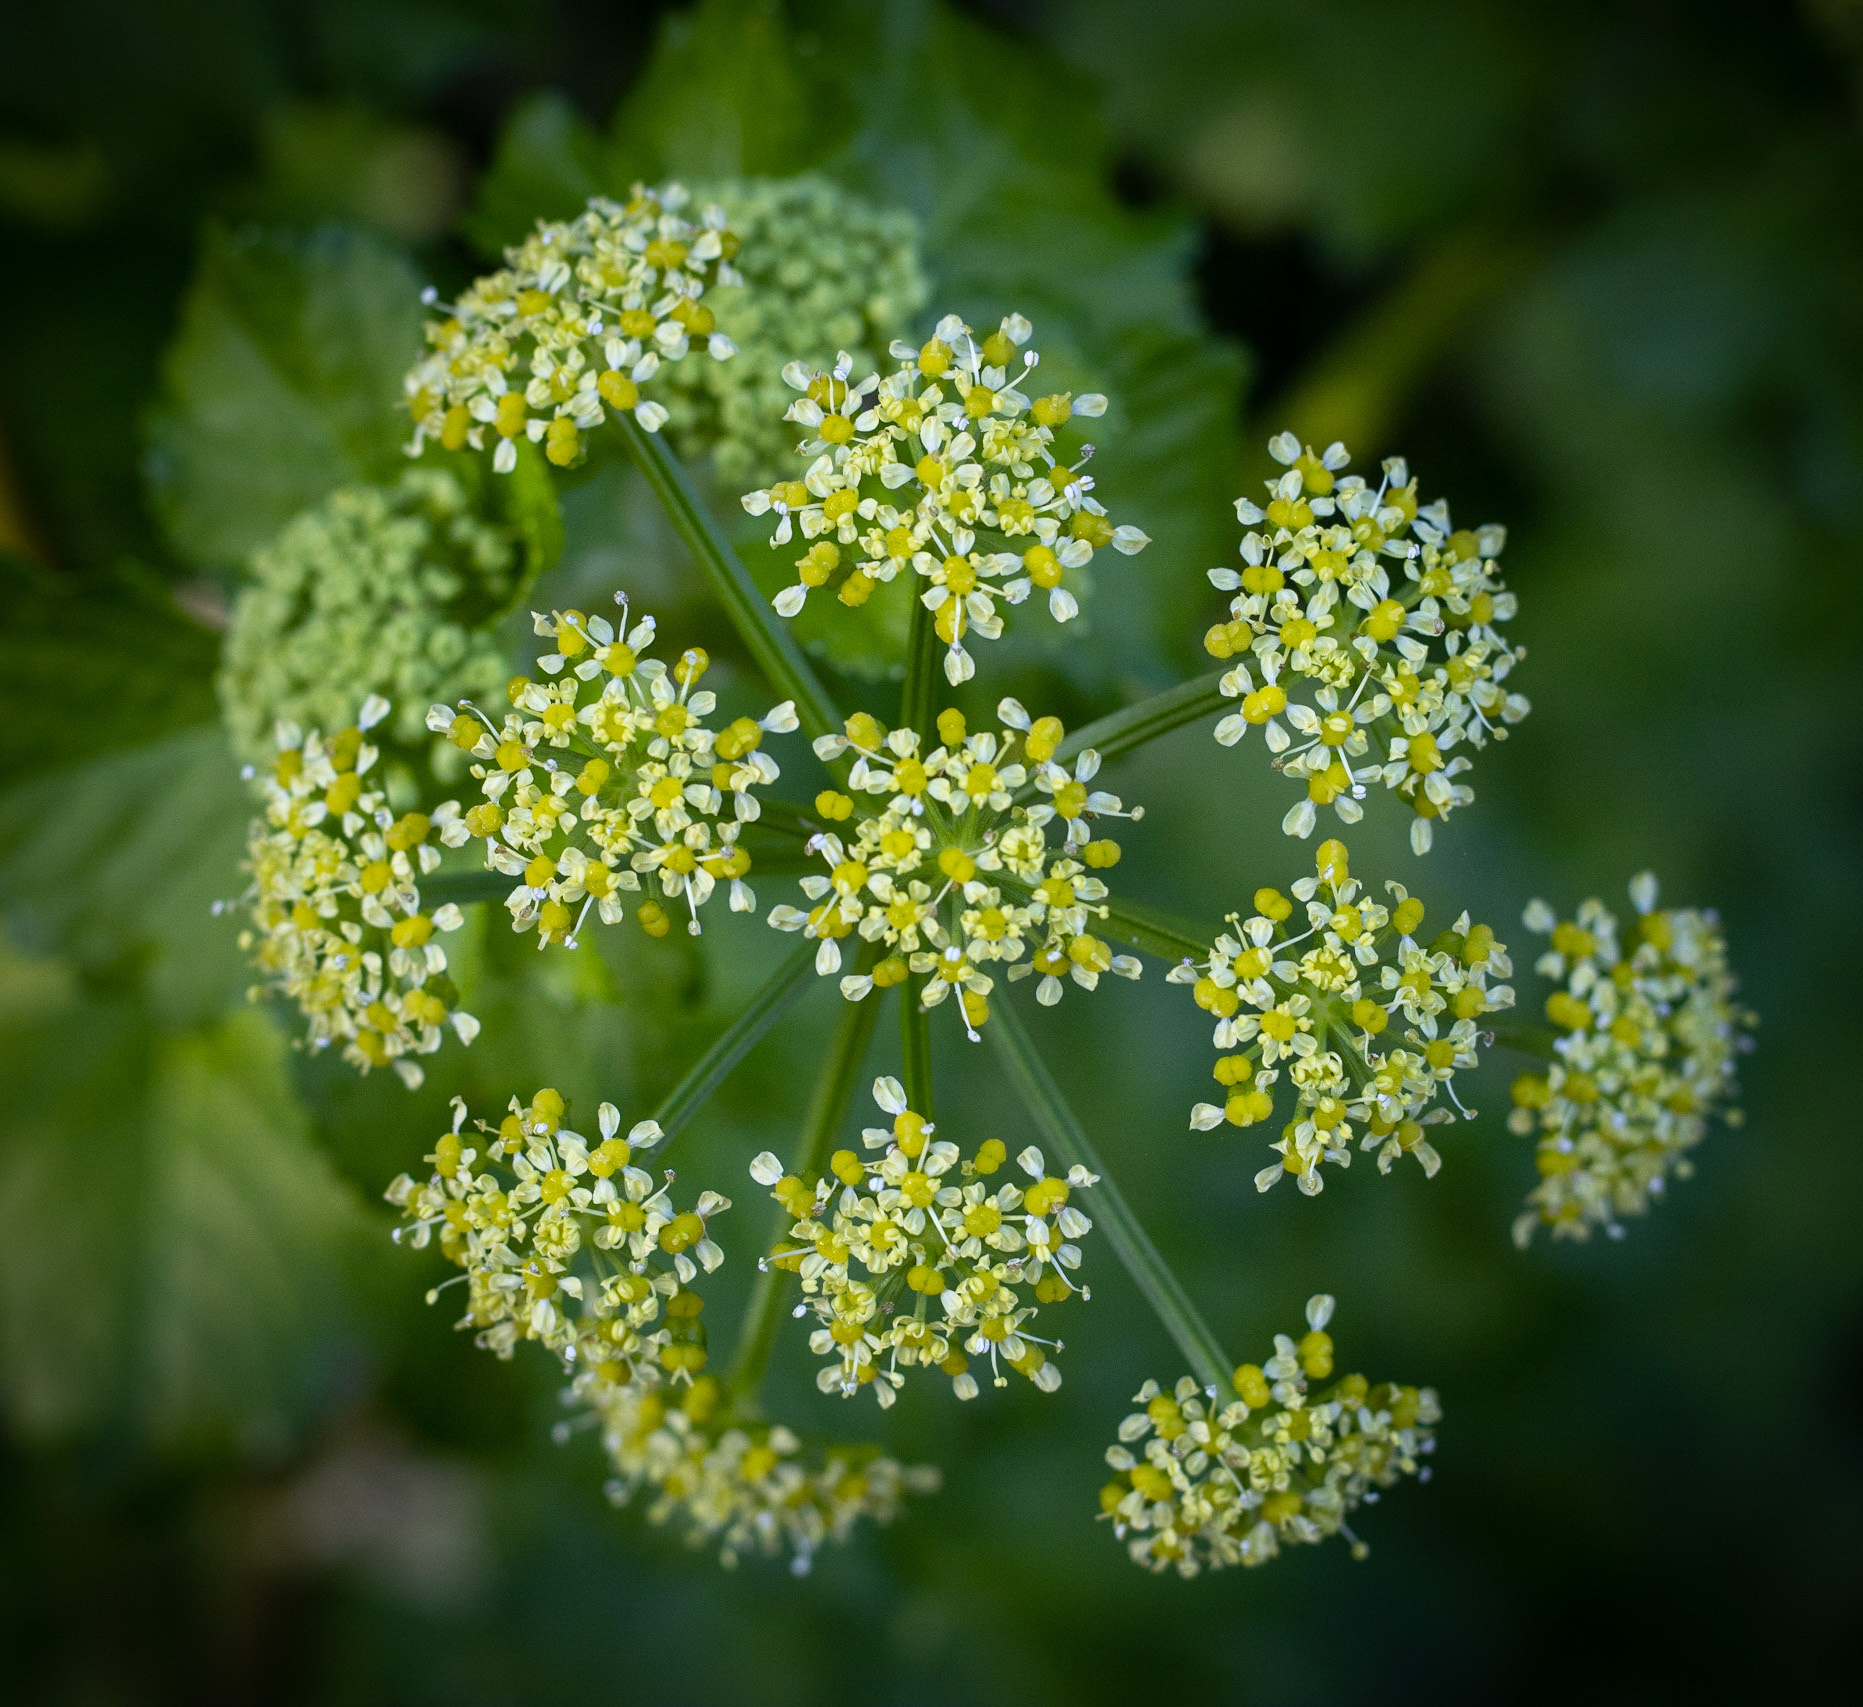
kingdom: Plantae
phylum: Tracheophyta
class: Magnoliopsida
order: Apiales
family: Apiaceae
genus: Smyrnium
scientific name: Smyrnium olusatrum
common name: Alexanders
